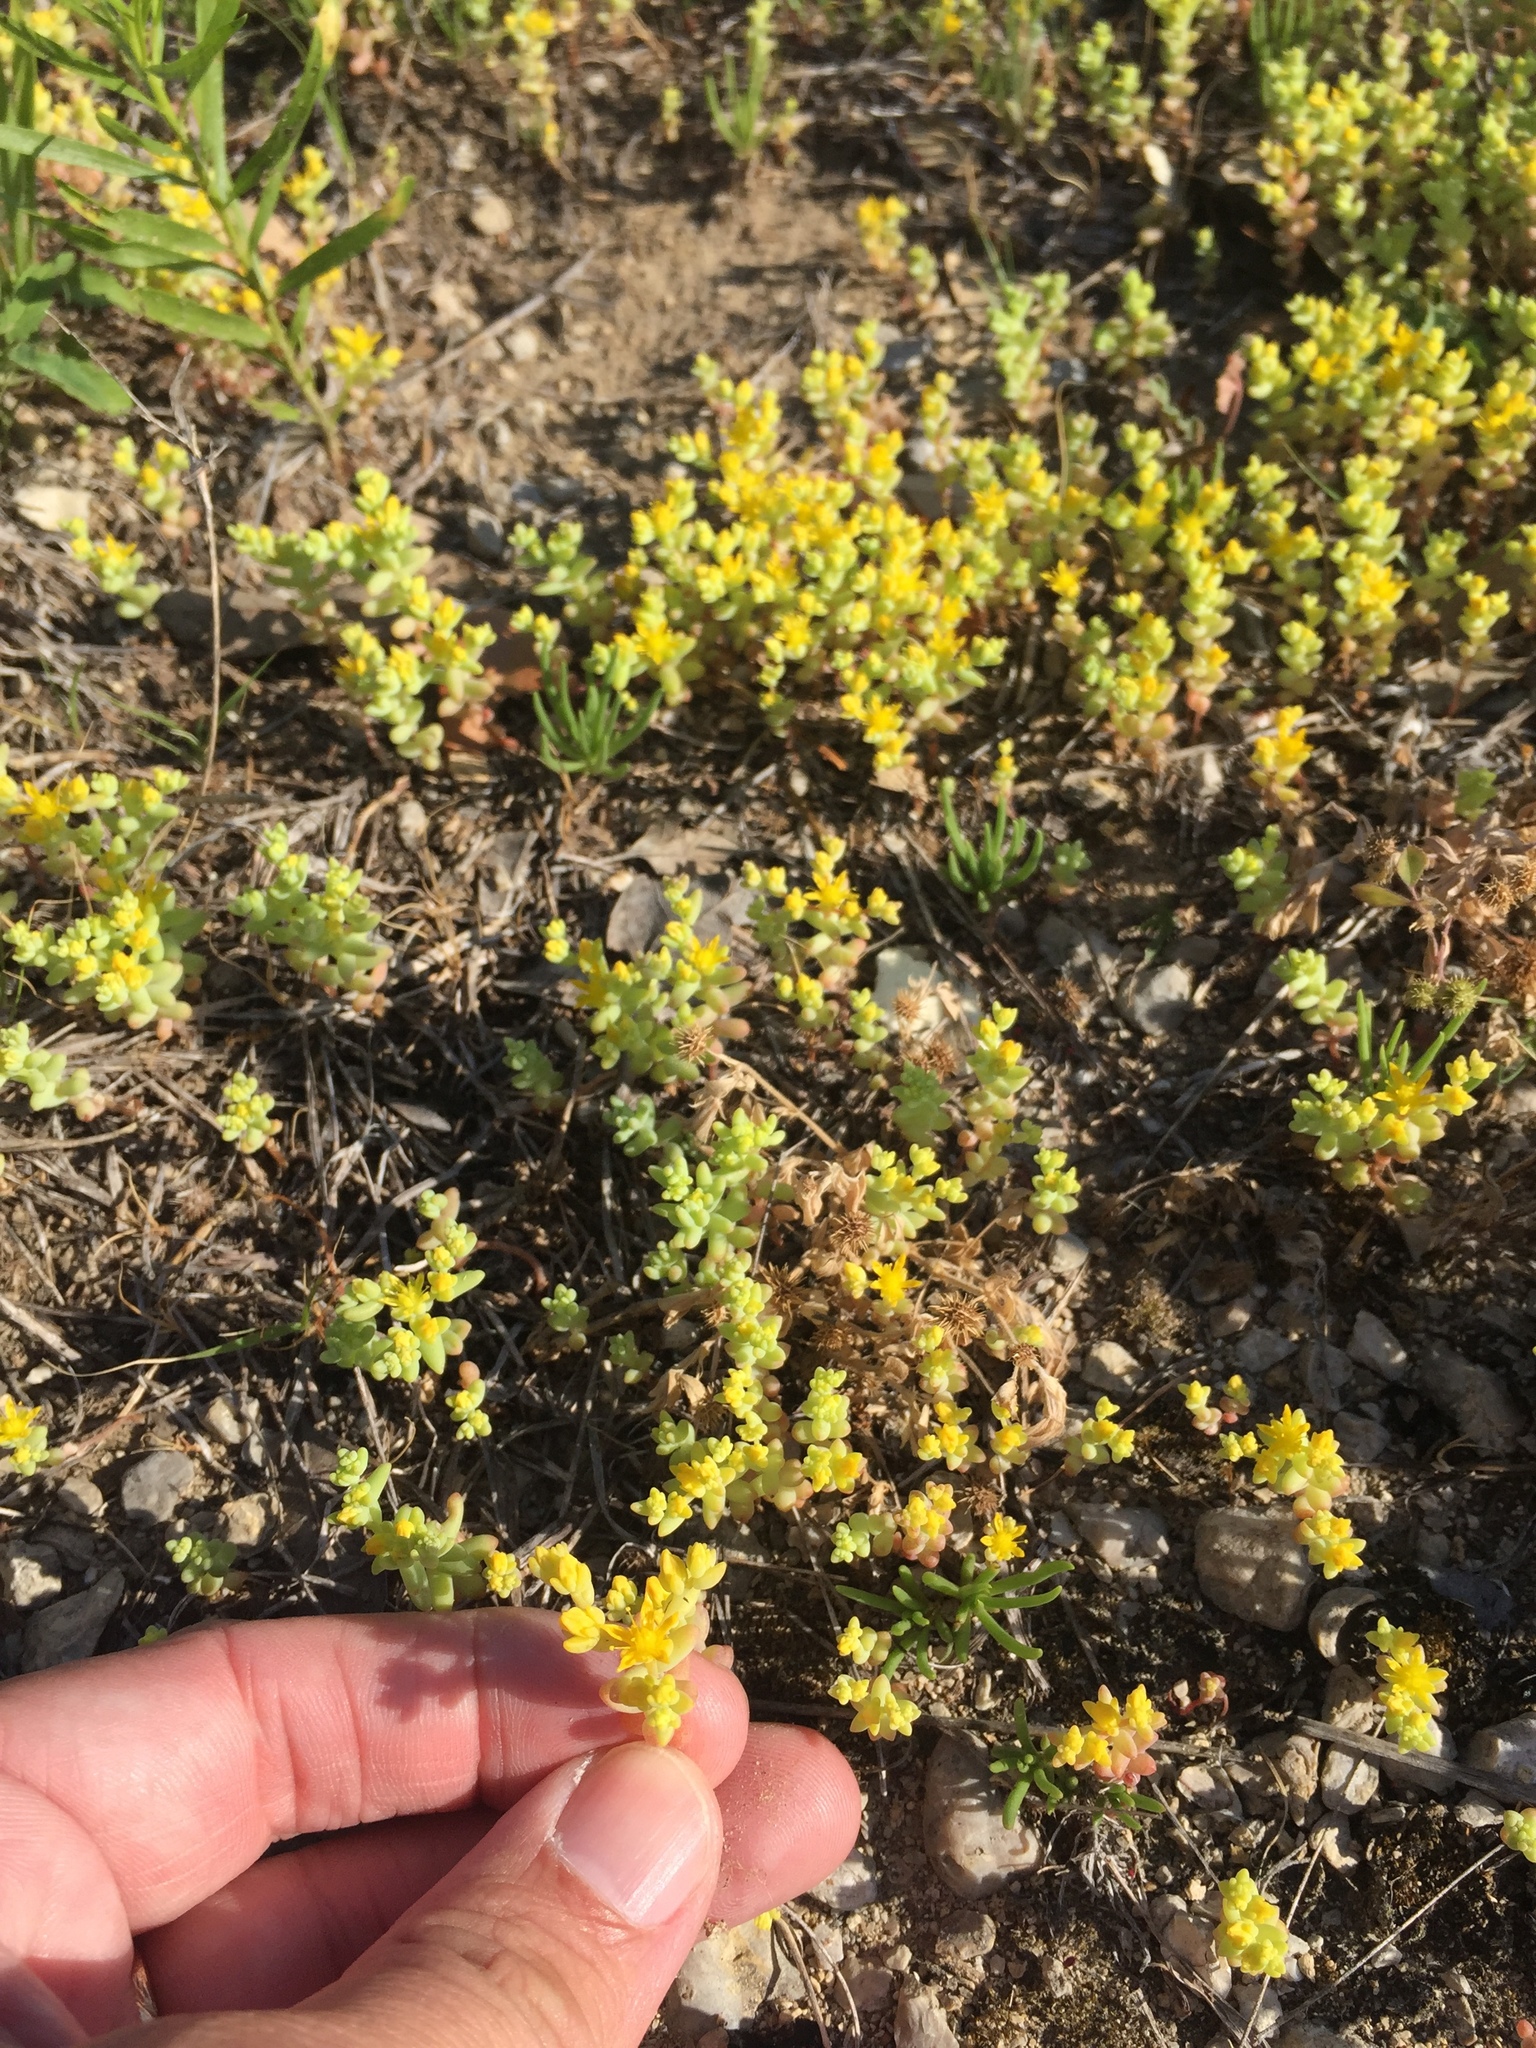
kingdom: Plantae
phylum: Tracheophyta
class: Magnoliopsida
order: Saxifragales
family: Crassulaceae
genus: Sedum
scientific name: Sedum nuttallii
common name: Yellow stonecrop
